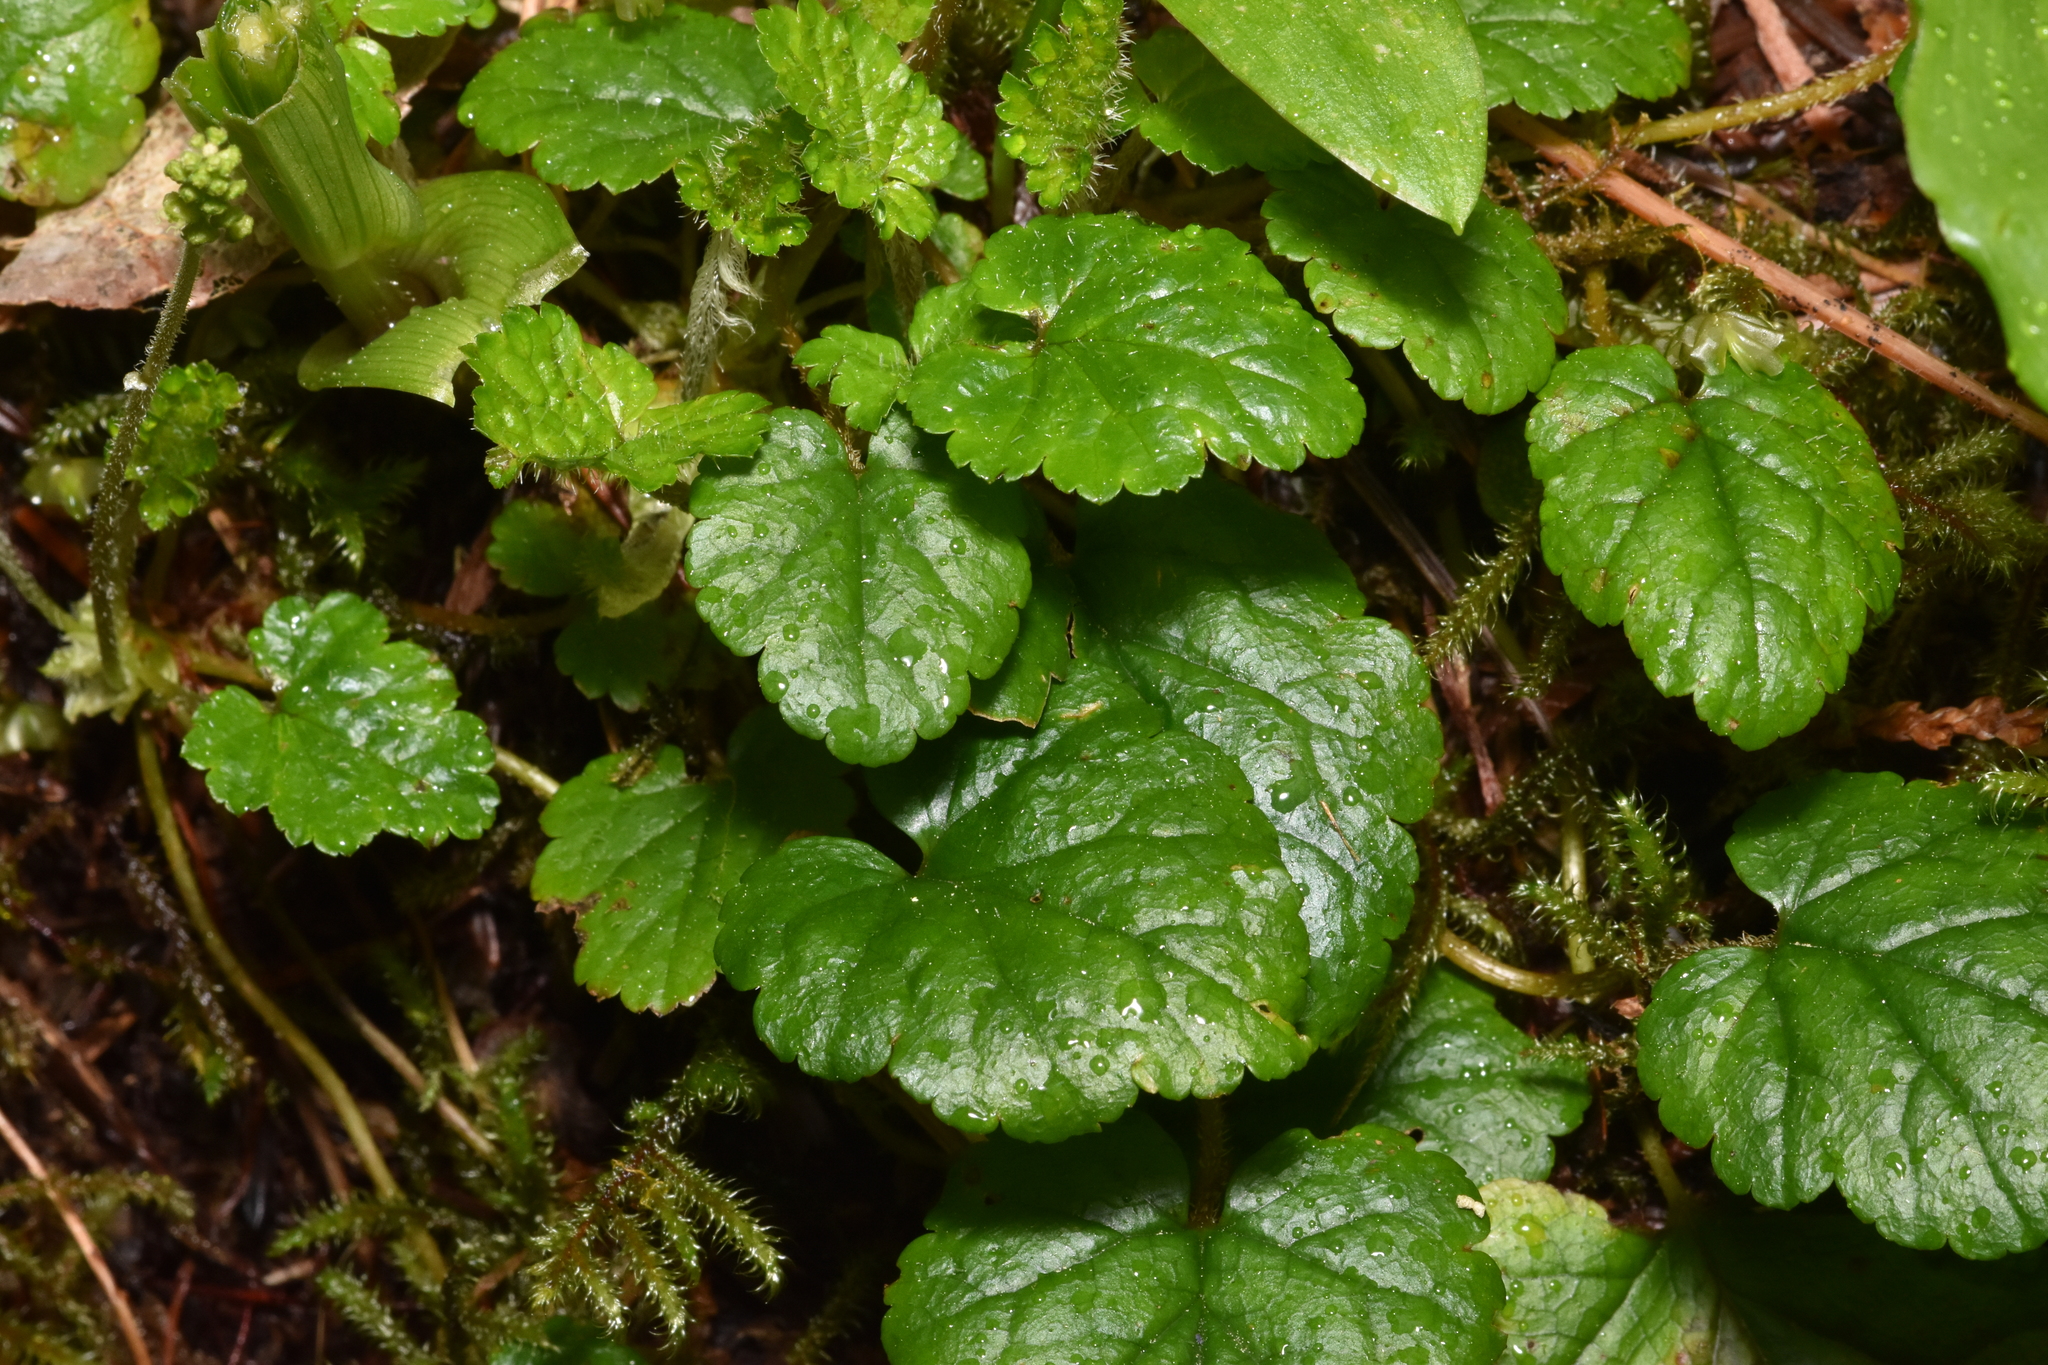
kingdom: Plantae
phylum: Tracheophyta
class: Magnoliopsida
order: Saxifragales
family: Saxifragaceae
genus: Brewerimitella
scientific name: Brewerimitella ovalis
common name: Coastal bishop's-cap
